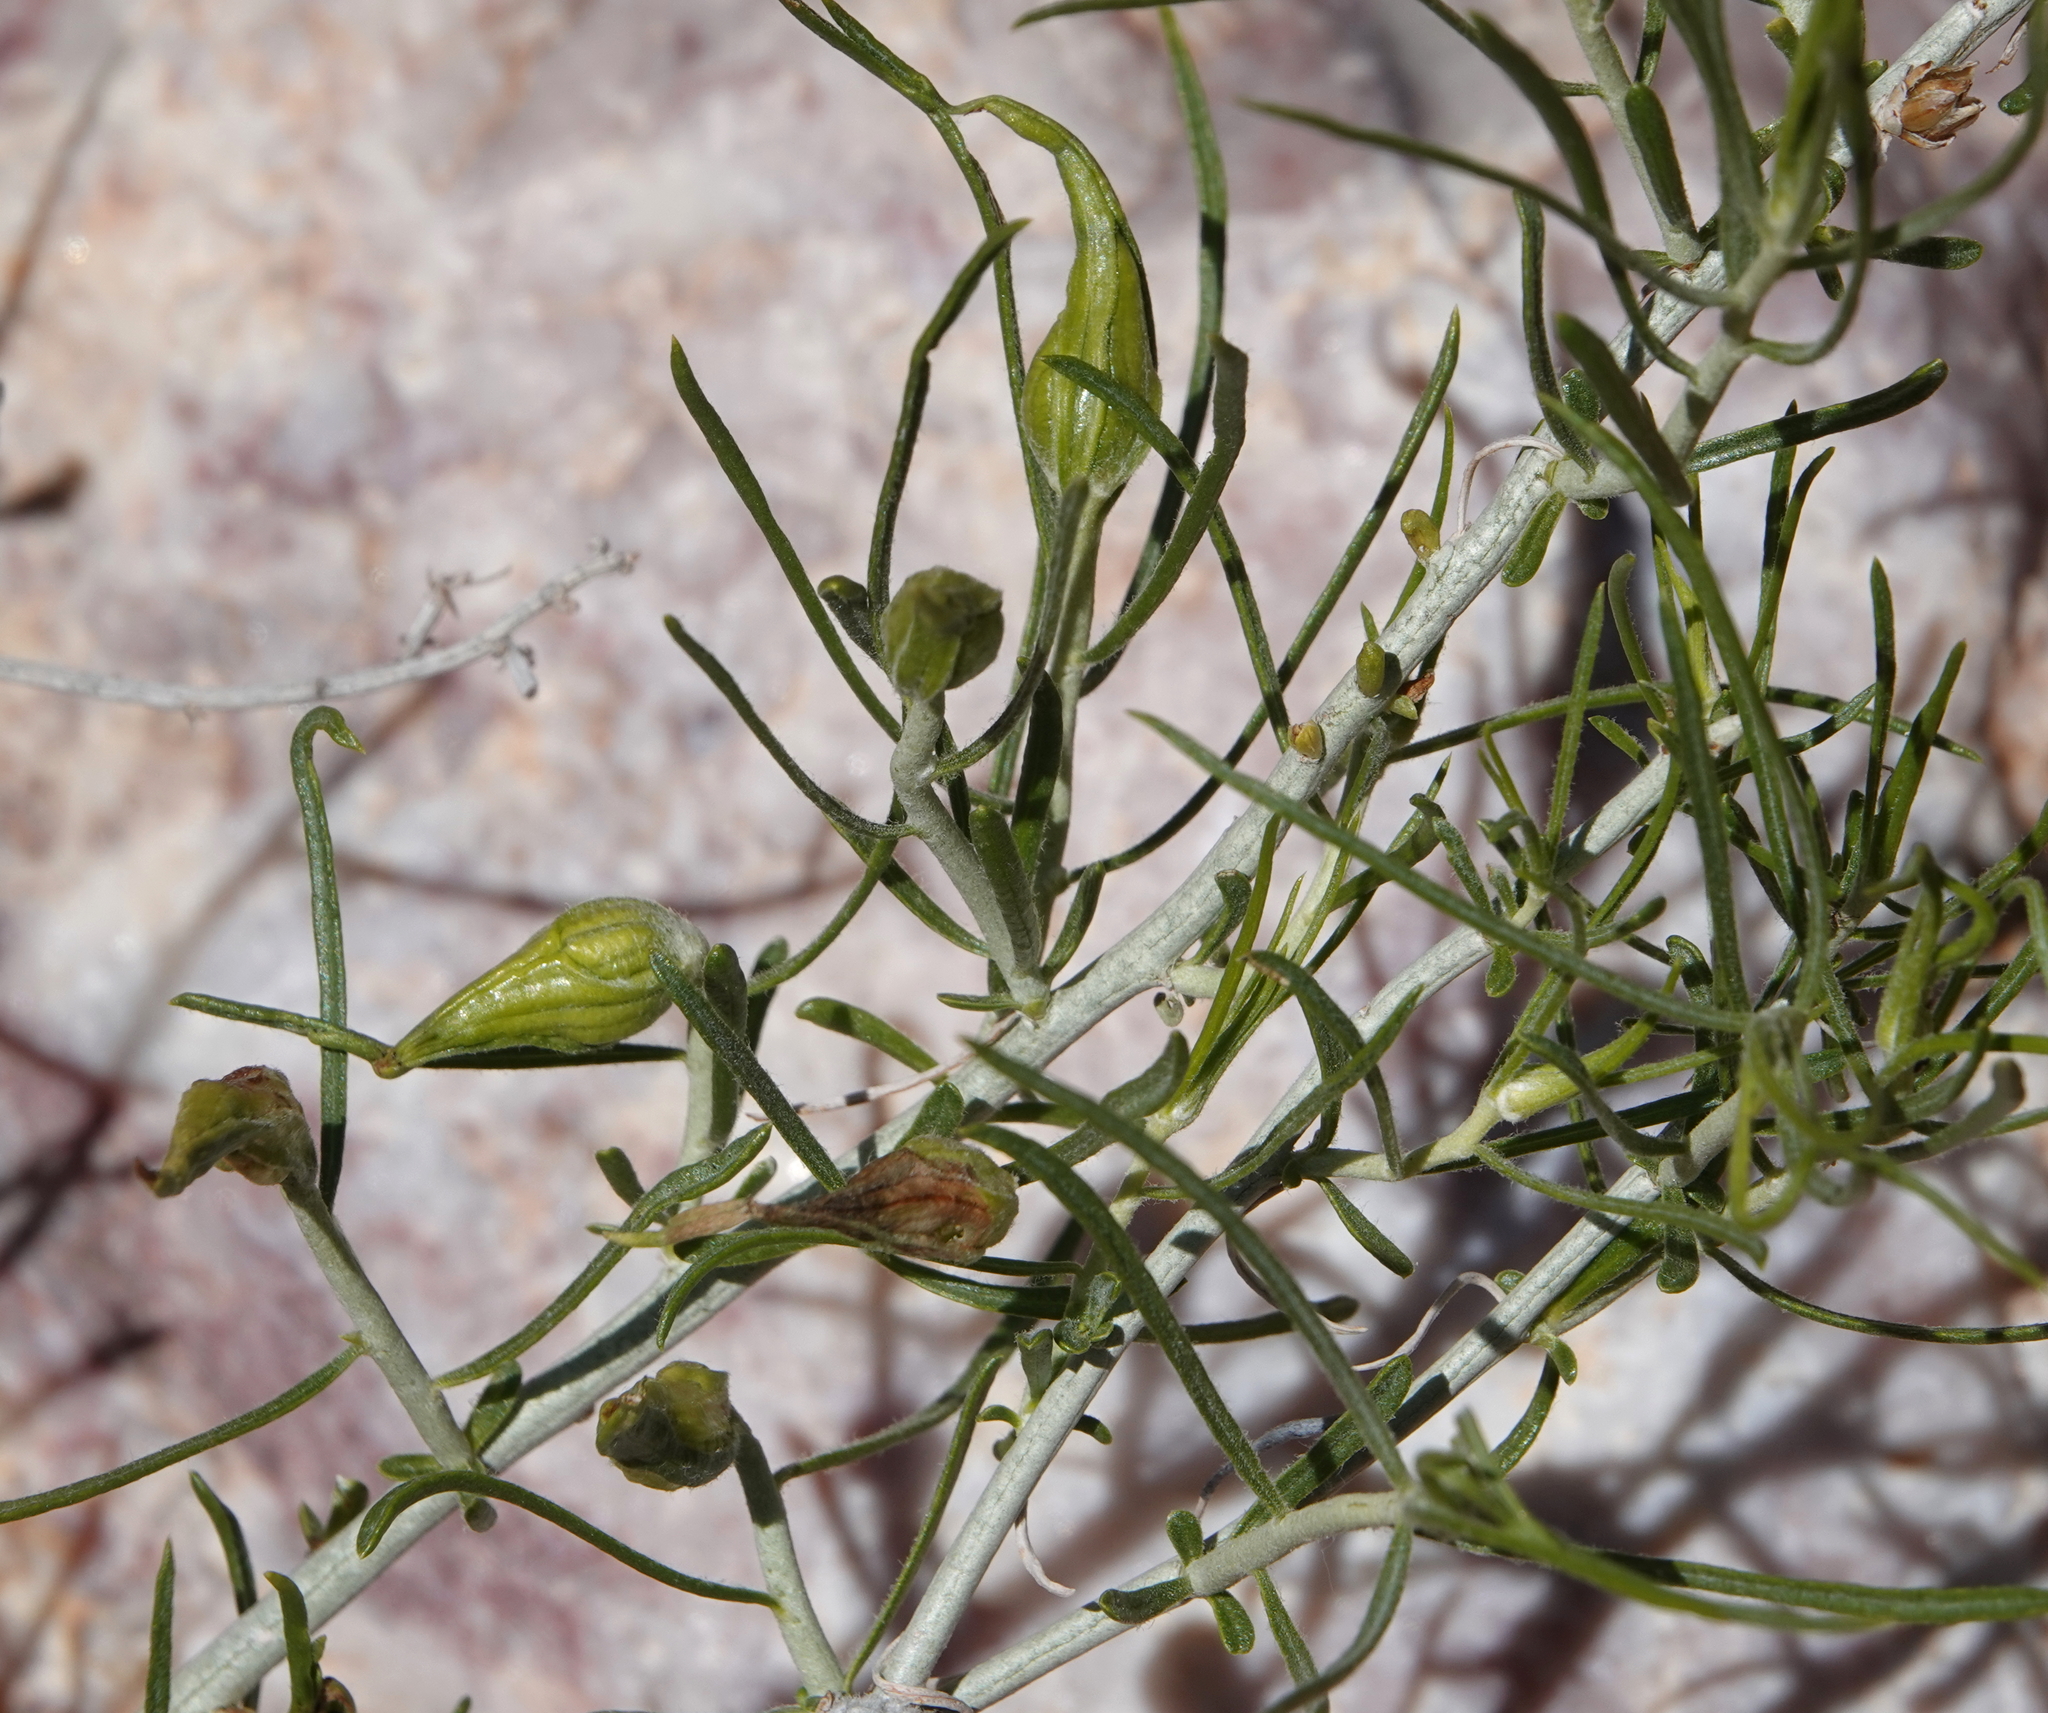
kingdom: Plantae
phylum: Tracheophyta
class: Magnoliopsida
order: Asterales
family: Asteraceae
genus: Ericameria
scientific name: Ericameria nauseosa
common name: Rubber rabbitbrush
